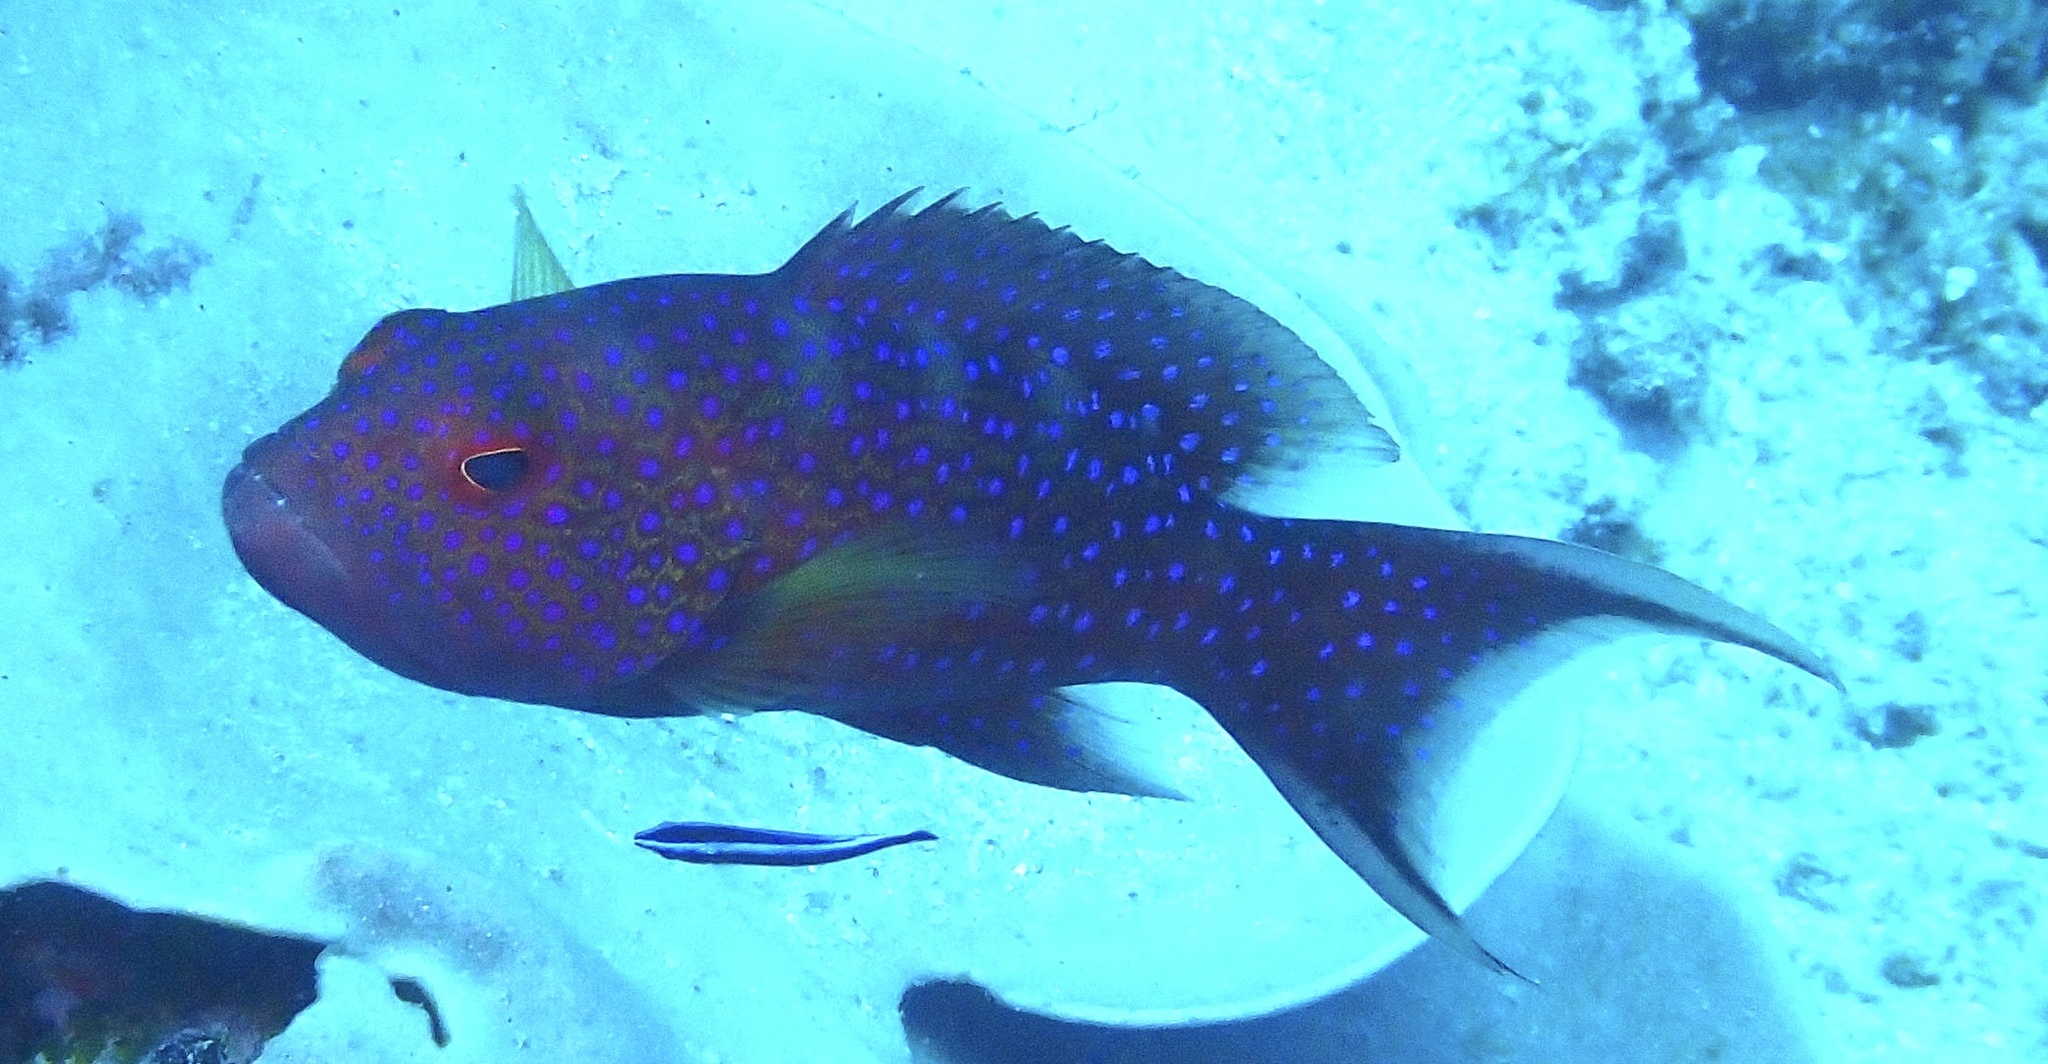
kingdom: Animalia
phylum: Chordata
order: Perciformes
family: Serranidae
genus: Variola
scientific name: Variola albimarginata
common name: Lunar-tailed grouper
